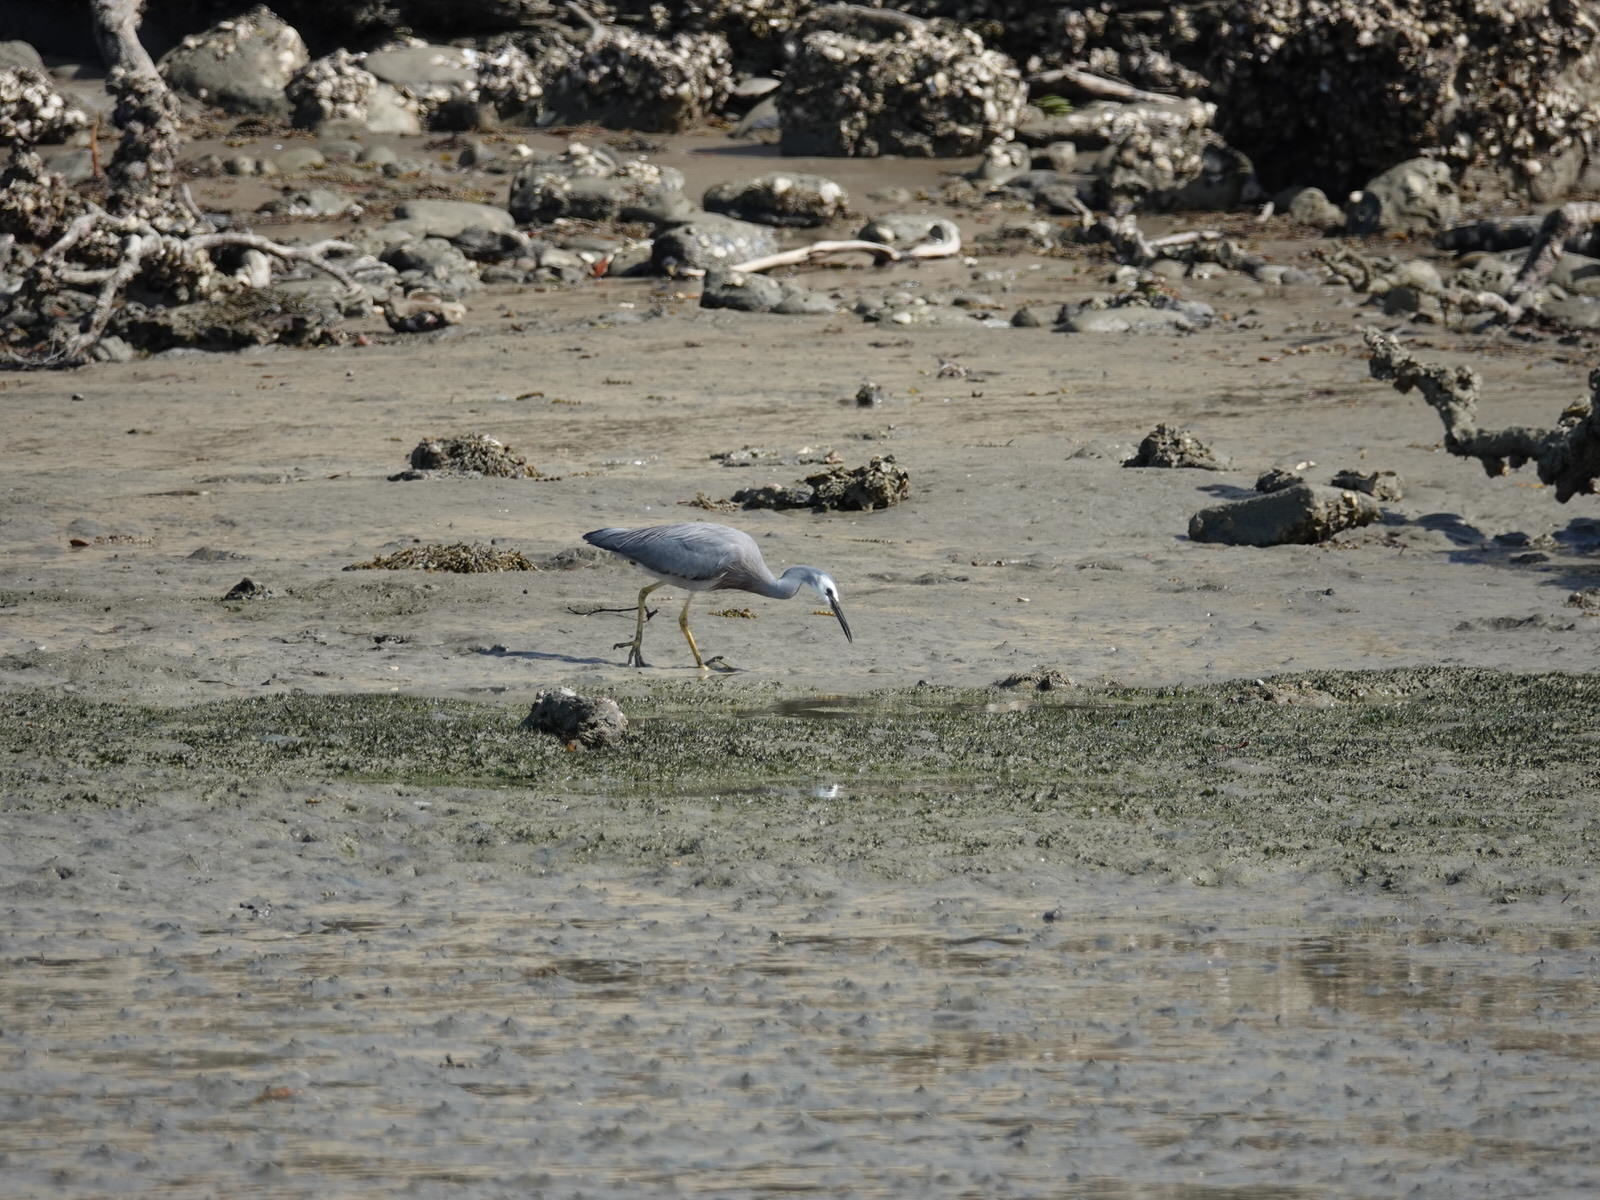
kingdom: Animalia
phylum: Chordata
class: Aves
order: Pelecaniformes
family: Ardeidae
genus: Egretta
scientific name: Egretta novaehollandiae
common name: White-faced heron
